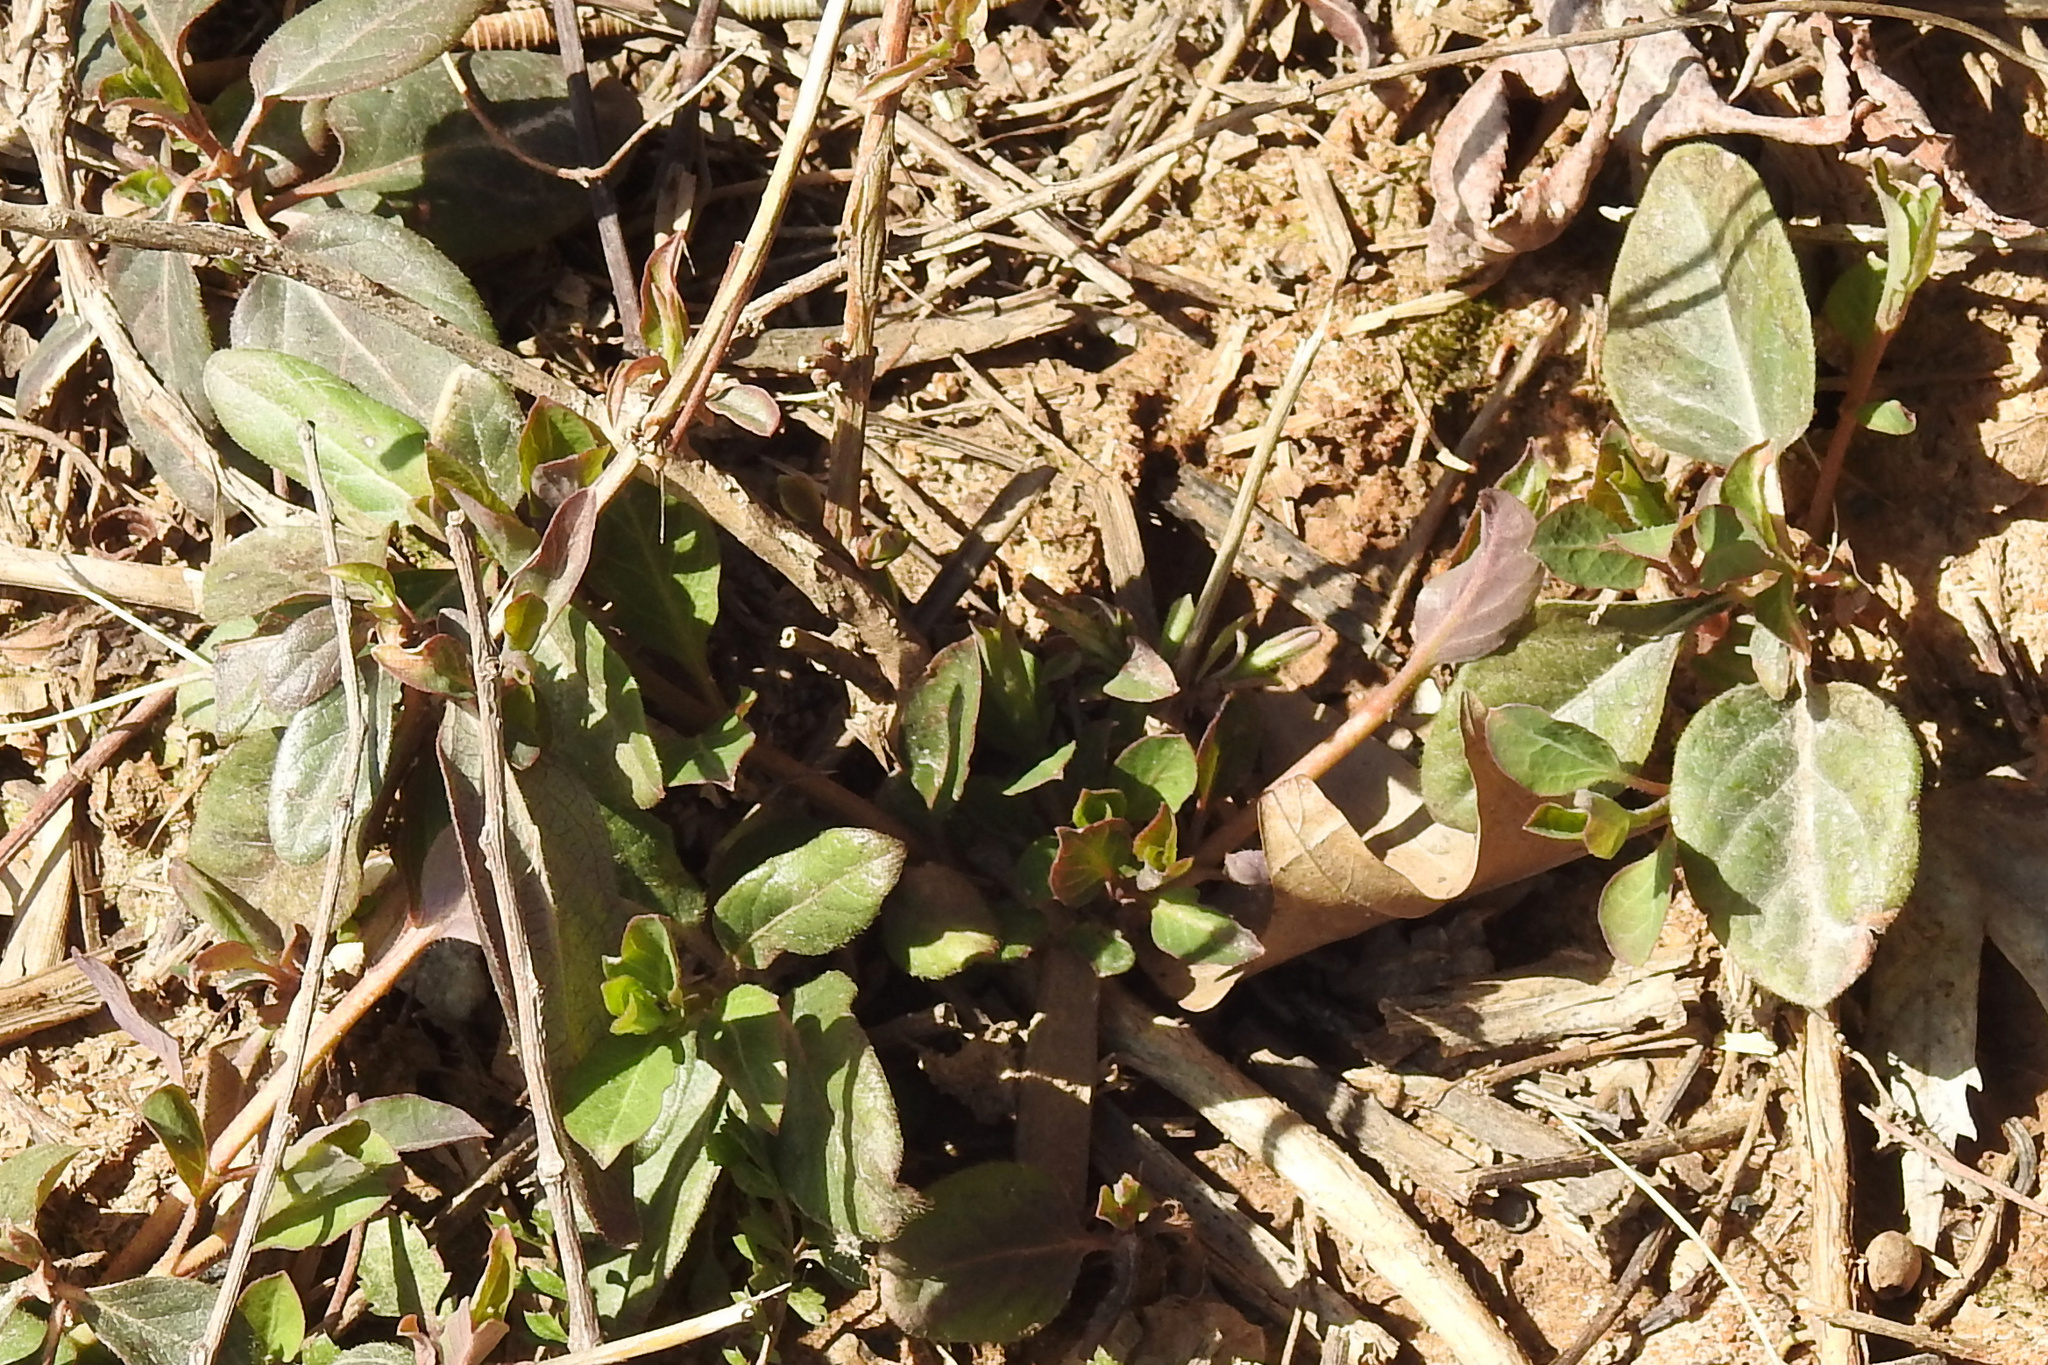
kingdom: Plantae
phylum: Tracheophyta
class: Magnoliopsida
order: Dipsacales
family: Caprifoliaceae
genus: Lonicera
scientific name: Lonicera japonica
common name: Japanese honeysuckle
